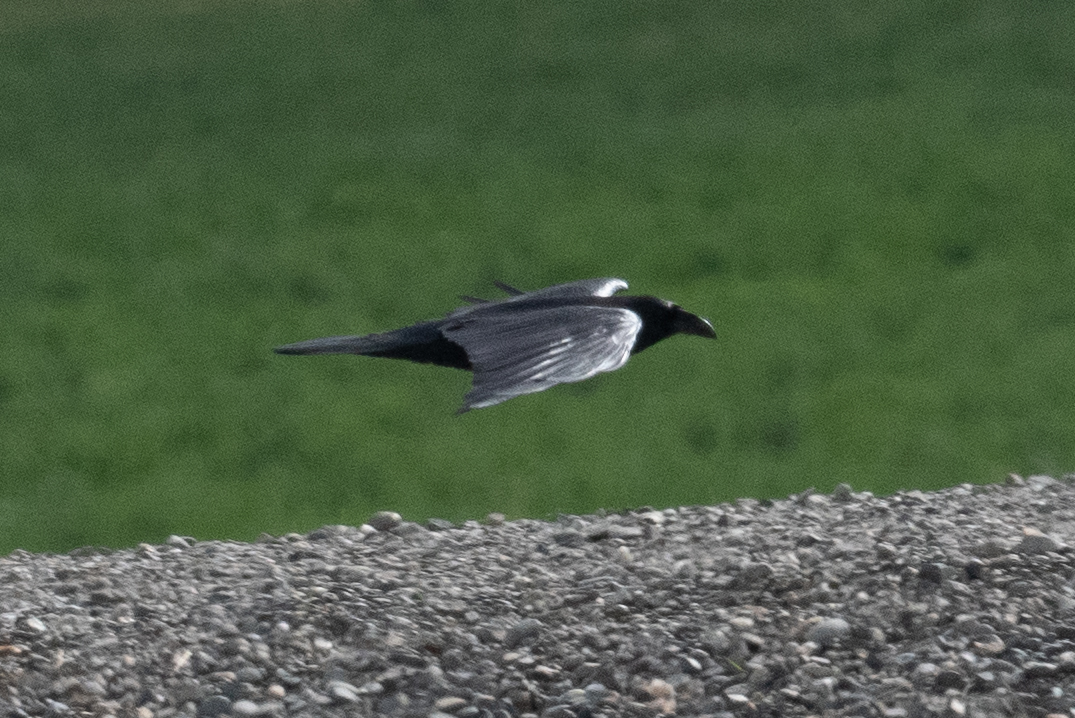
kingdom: Animalia
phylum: Chordata
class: Aves
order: Passeriformes
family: Corvidae
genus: Corvus
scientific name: Corvus corax
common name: Common raven
